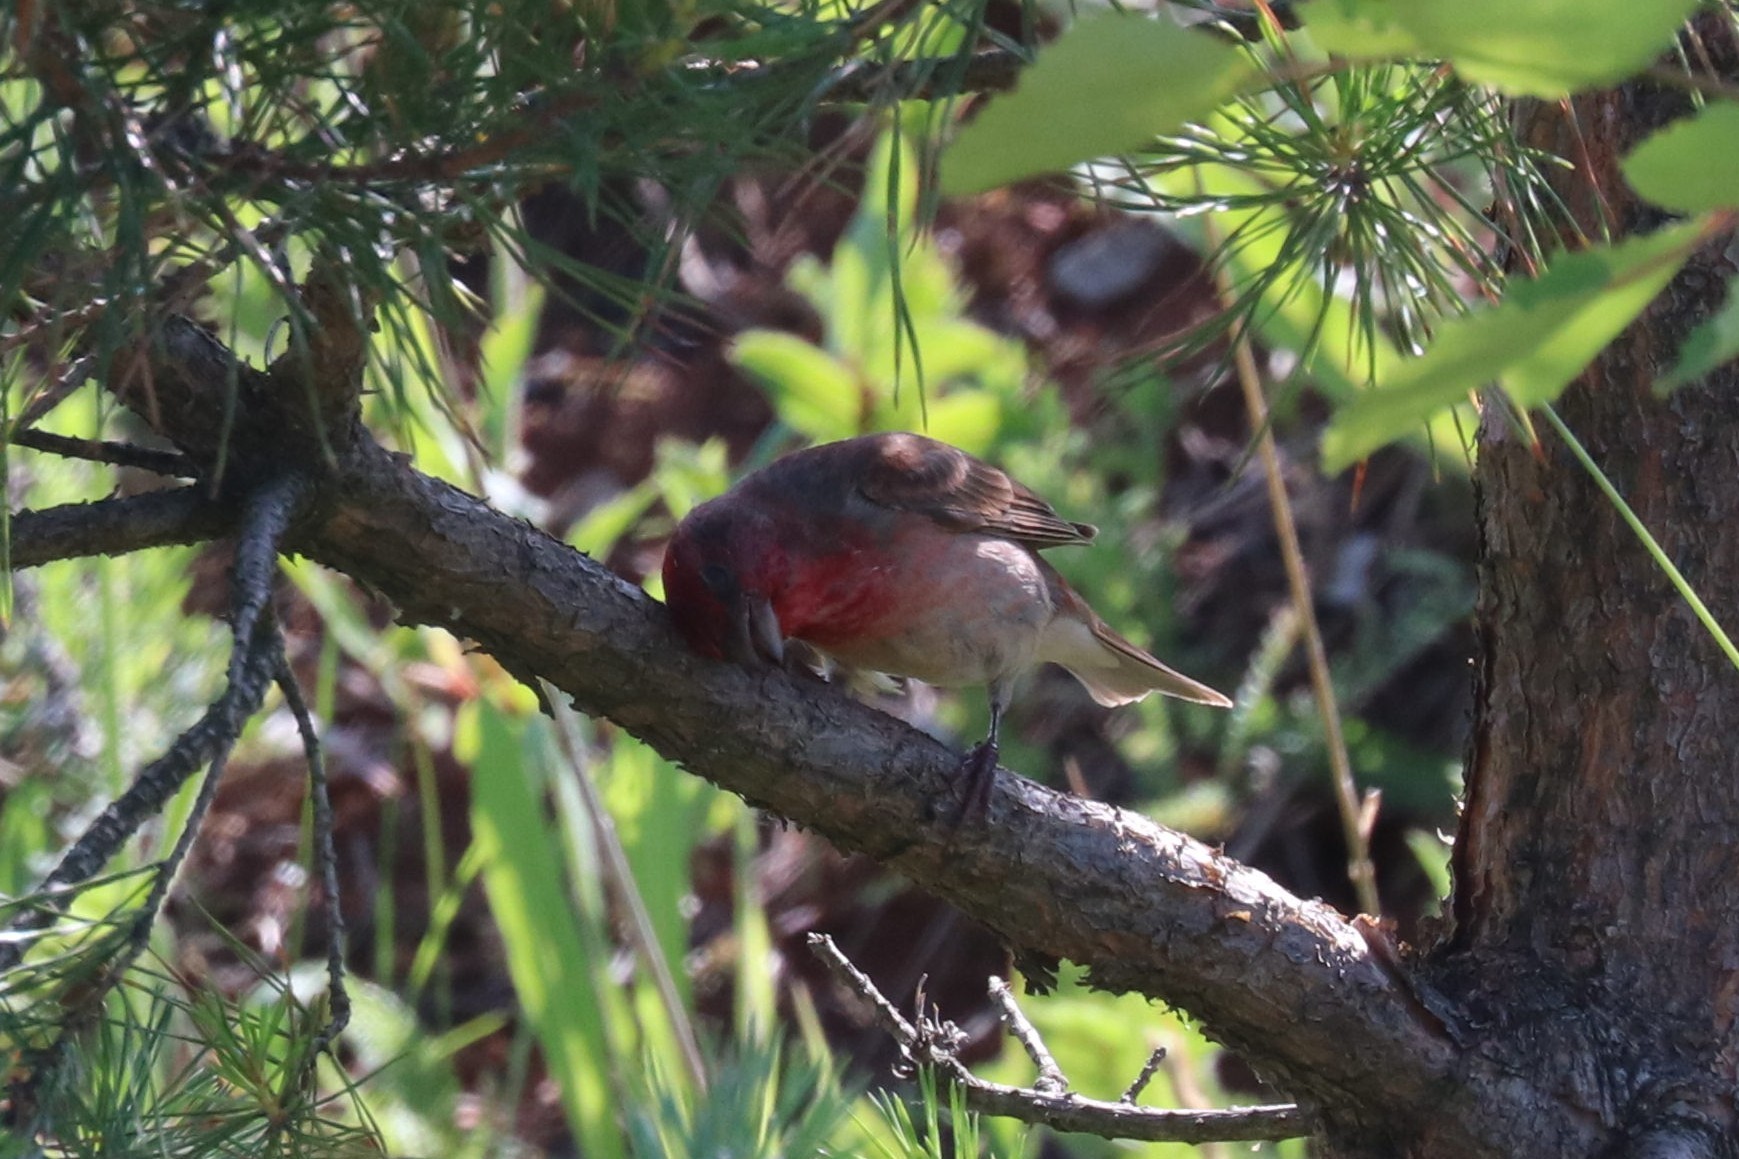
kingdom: Animalia
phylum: Chordata
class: Aves
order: Passeriformes
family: Fringillidae
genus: Carpodacus
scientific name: Carpodacus erythrinus
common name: Common rosefinch
